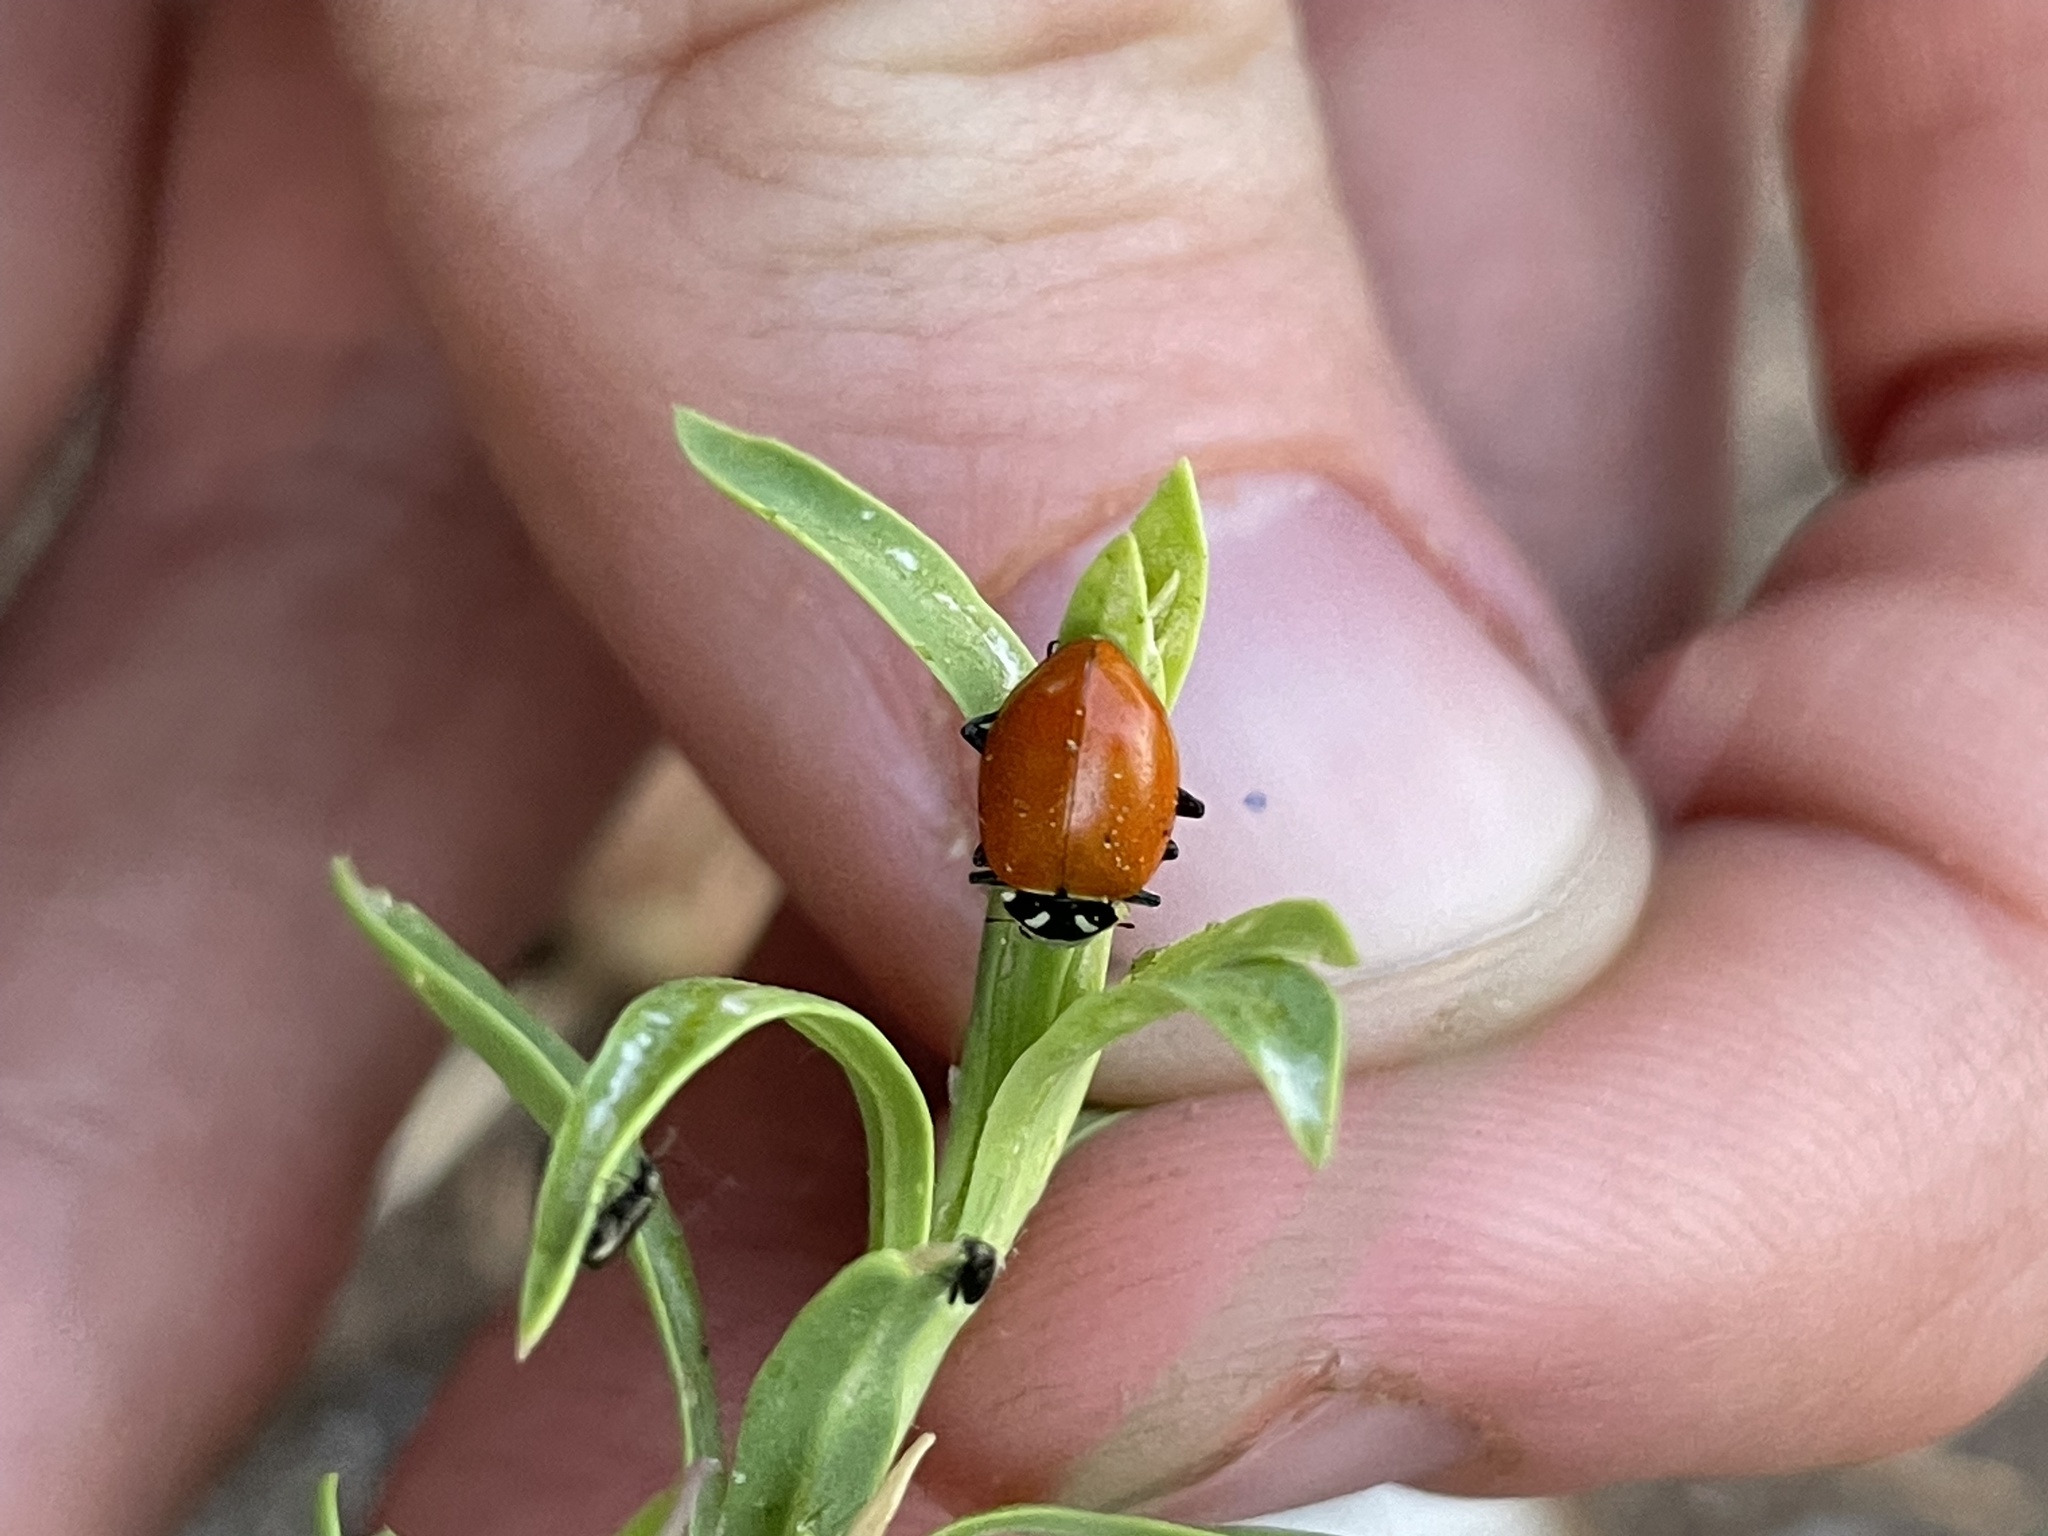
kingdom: Animalia
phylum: Arthropoda
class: Insecta
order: Coleoptera
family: Coccinellidae
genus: Hippodamia
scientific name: Hippodamia convergens
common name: Convergent lady beetle
